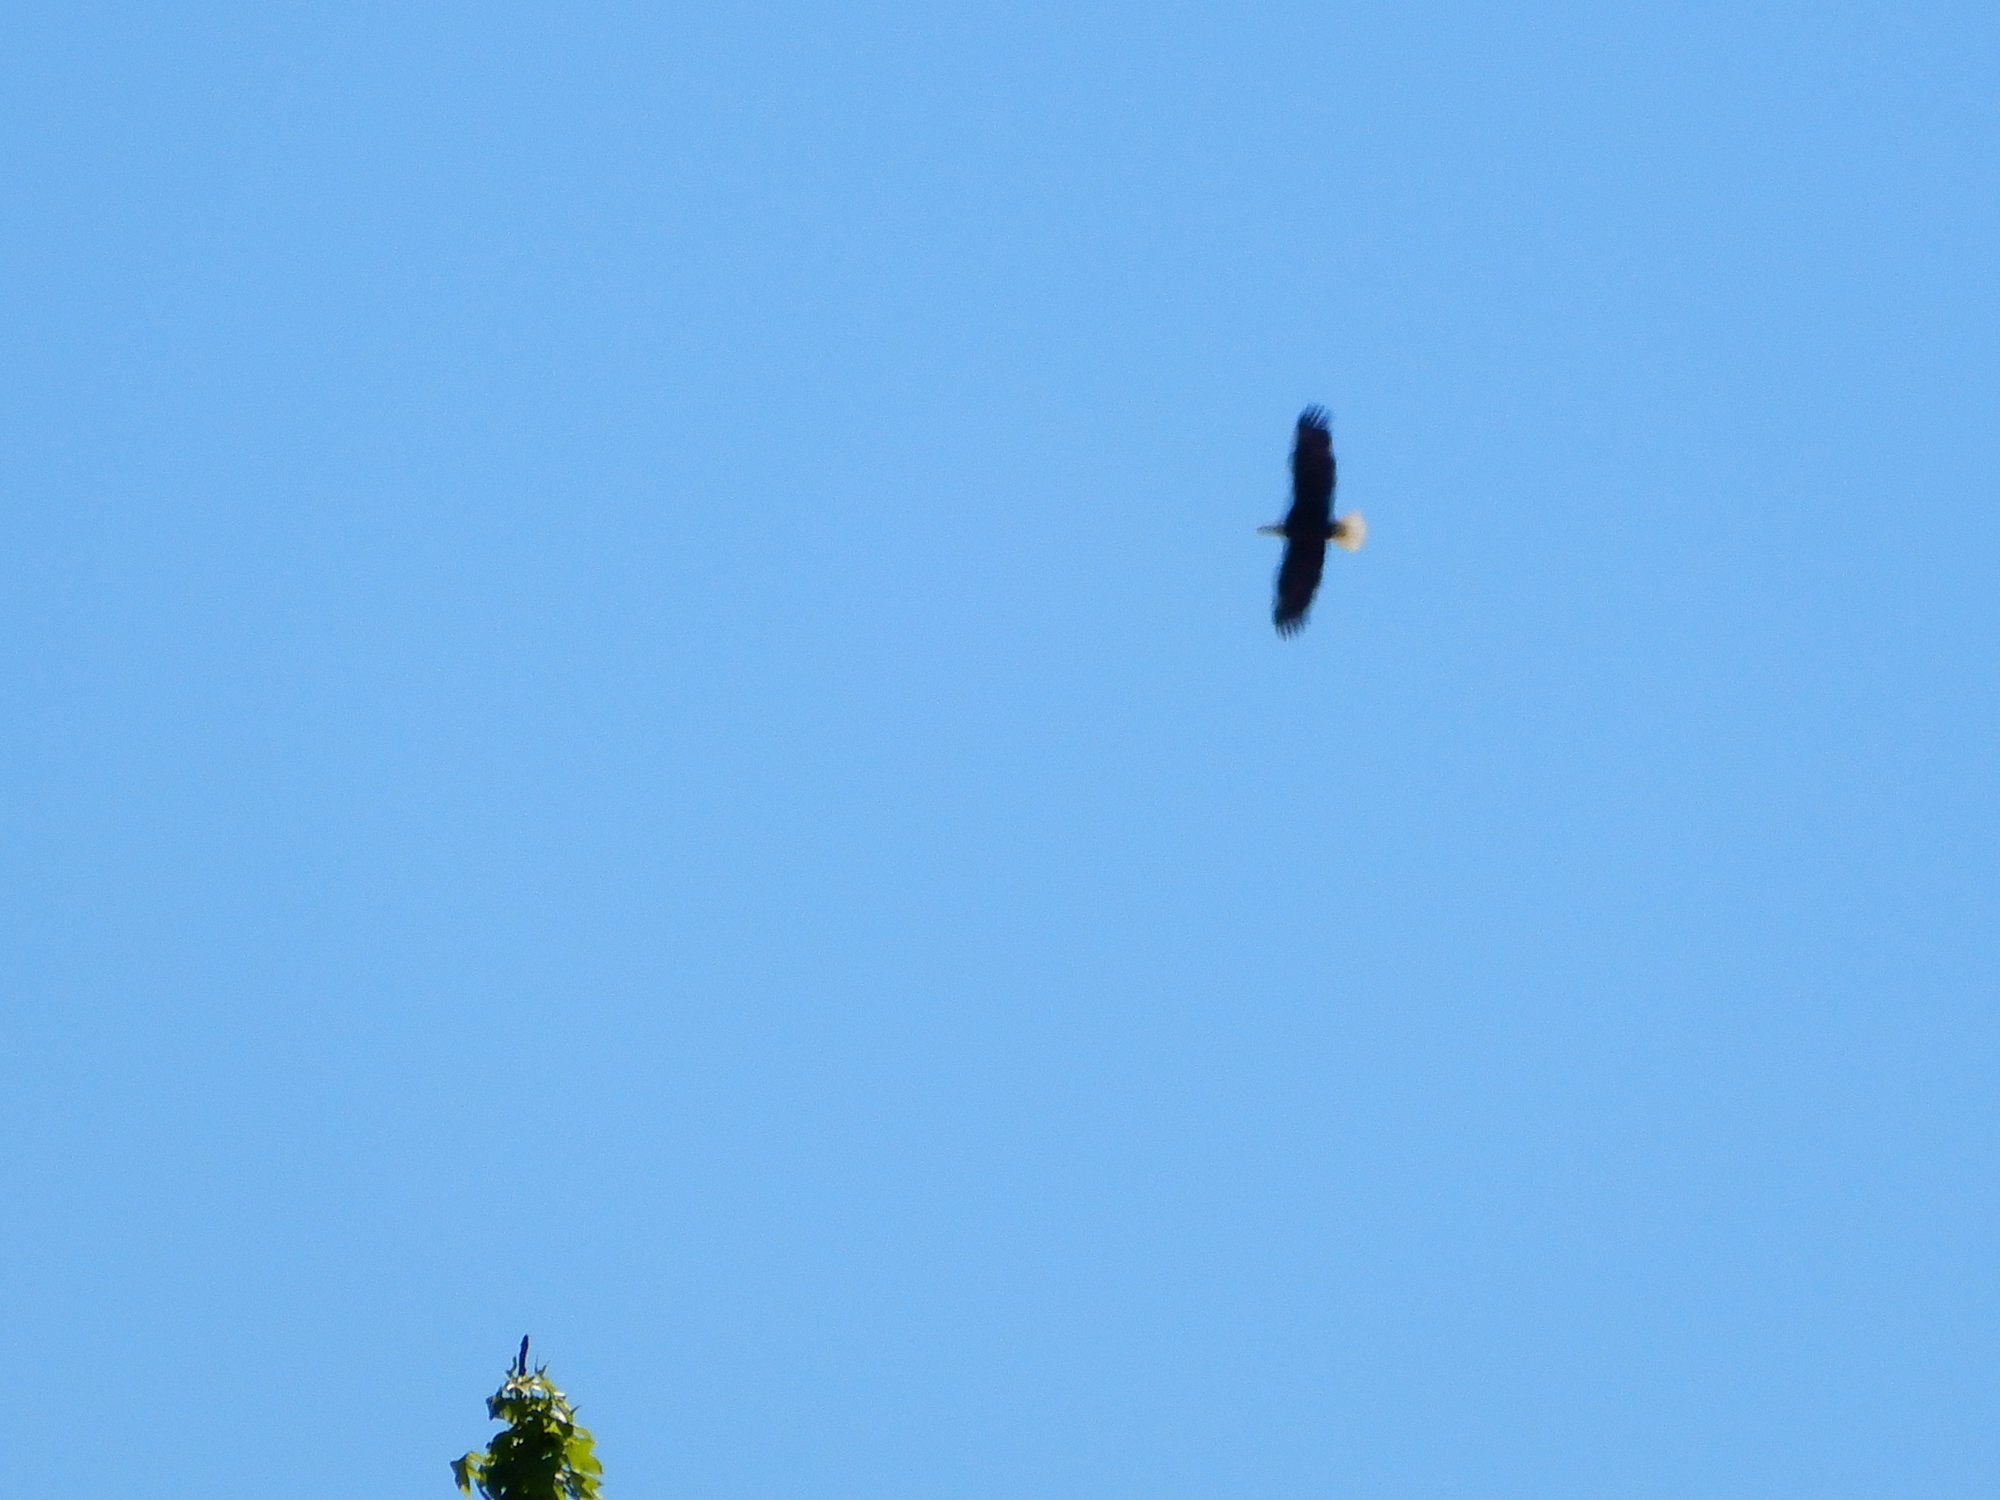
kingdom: Animalia
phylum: Chordata
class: Aves
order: Accipitriformes
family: Accipitridae
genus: Haliaeetus
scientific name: Haliaeetus leucocephalus
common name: Bald eagle
